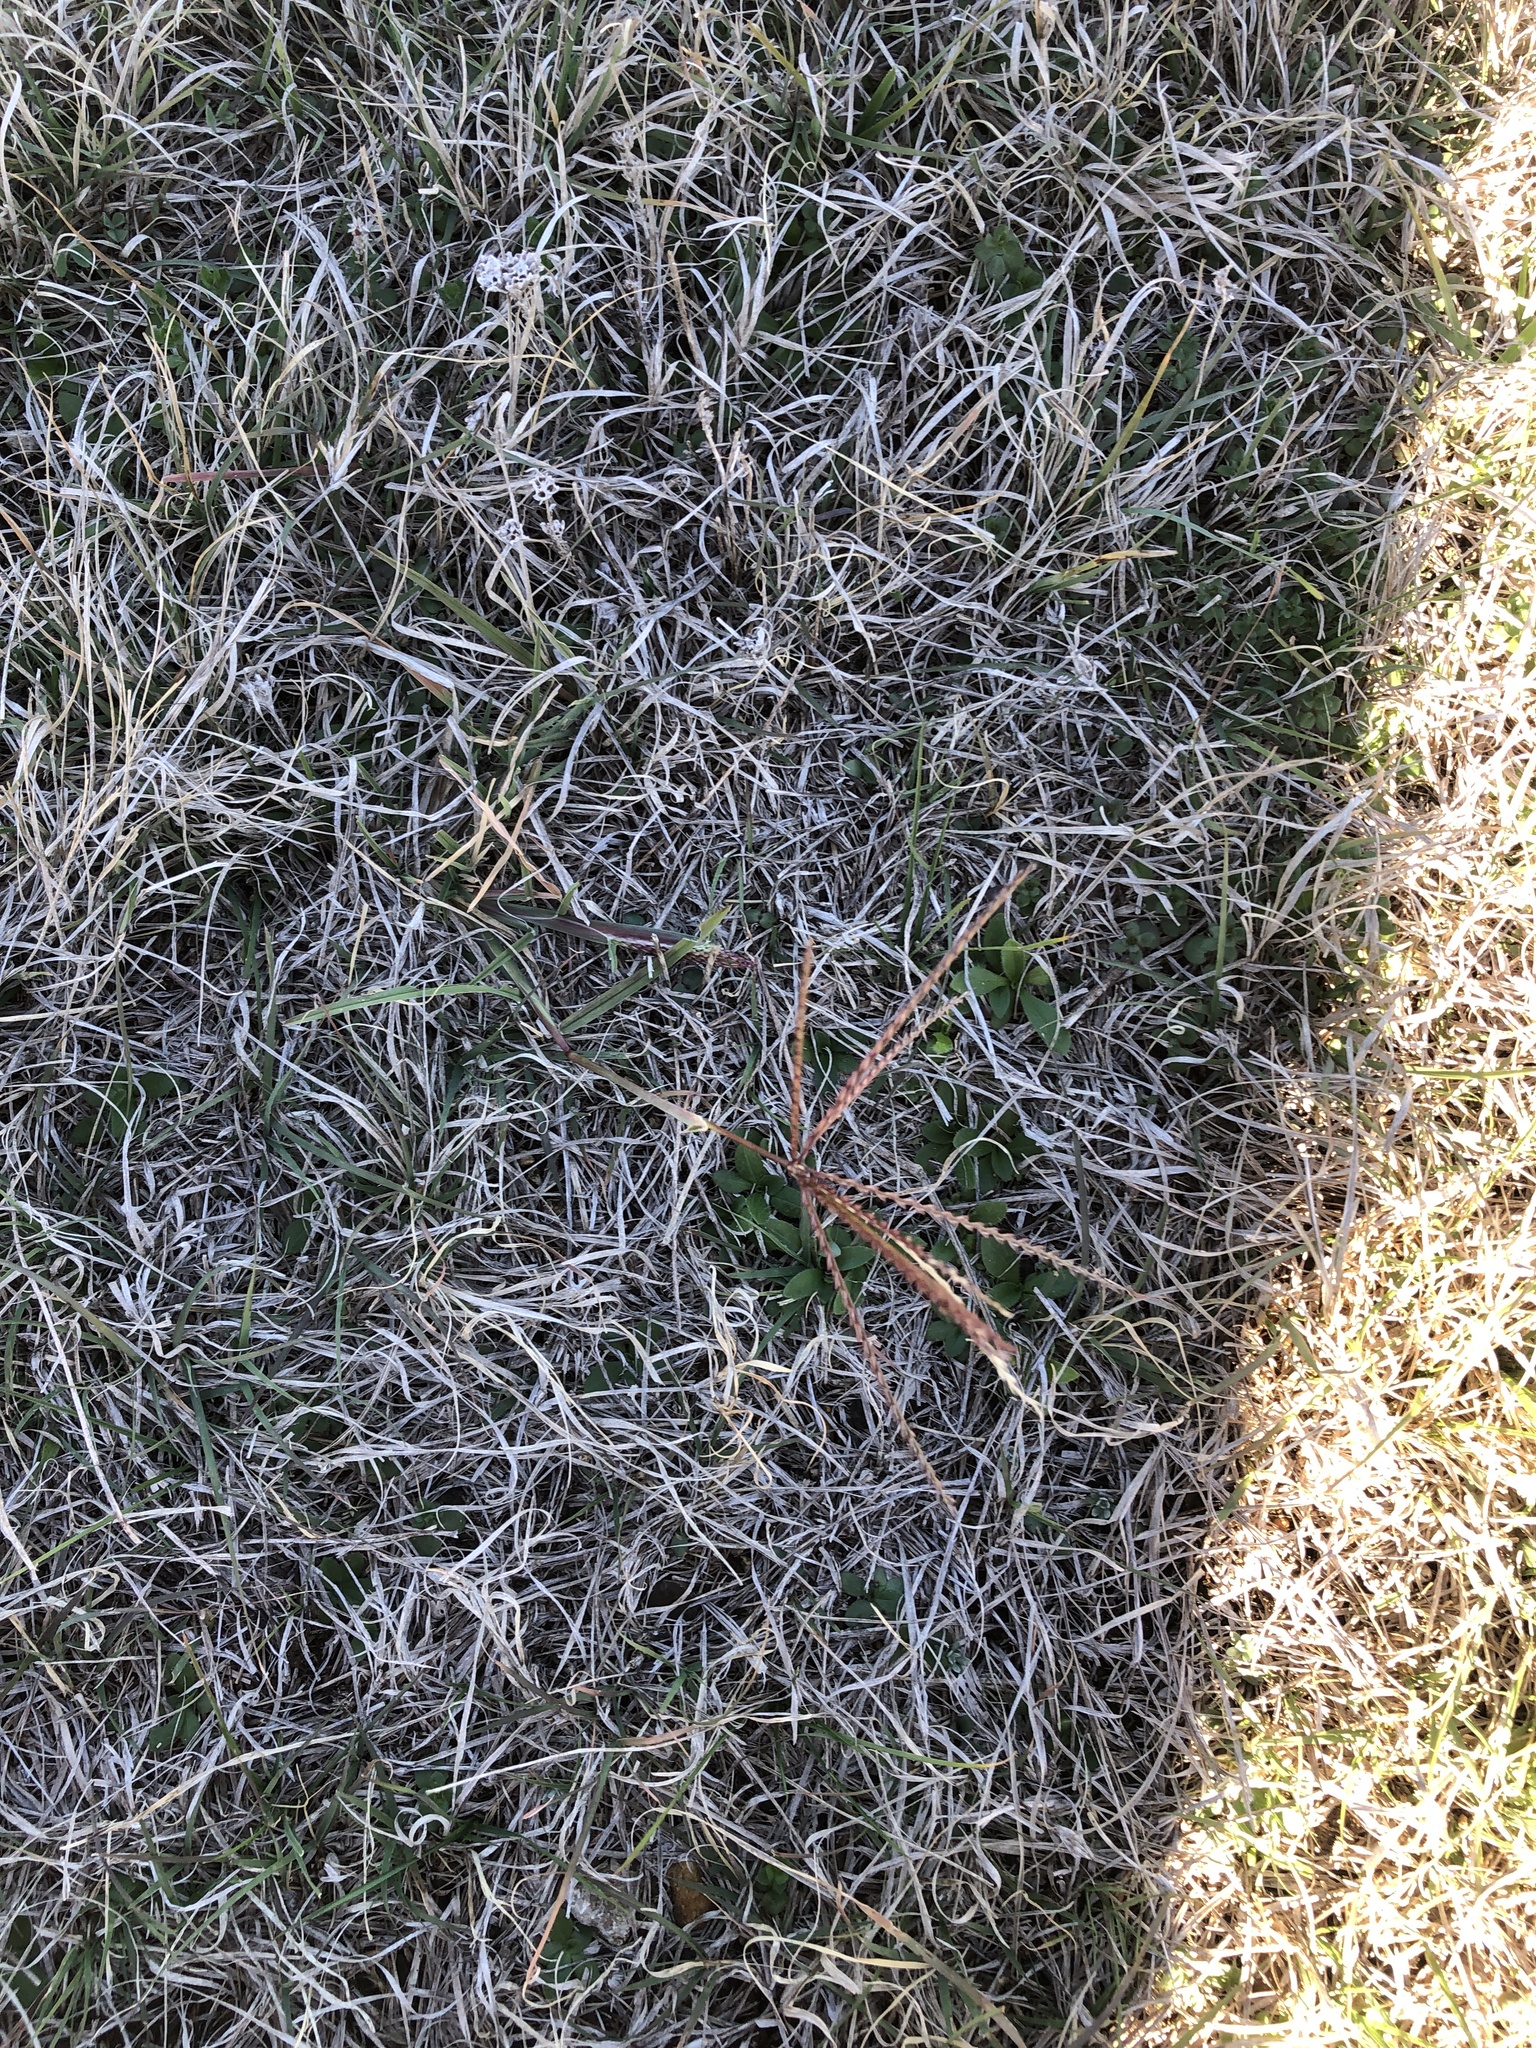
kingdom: Plantae
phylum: Tracheophyta
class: Liliopsida
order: Poales
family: Poaceae
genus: Chloris
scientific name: Chloris verticillata
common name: Tumble windmill grass
